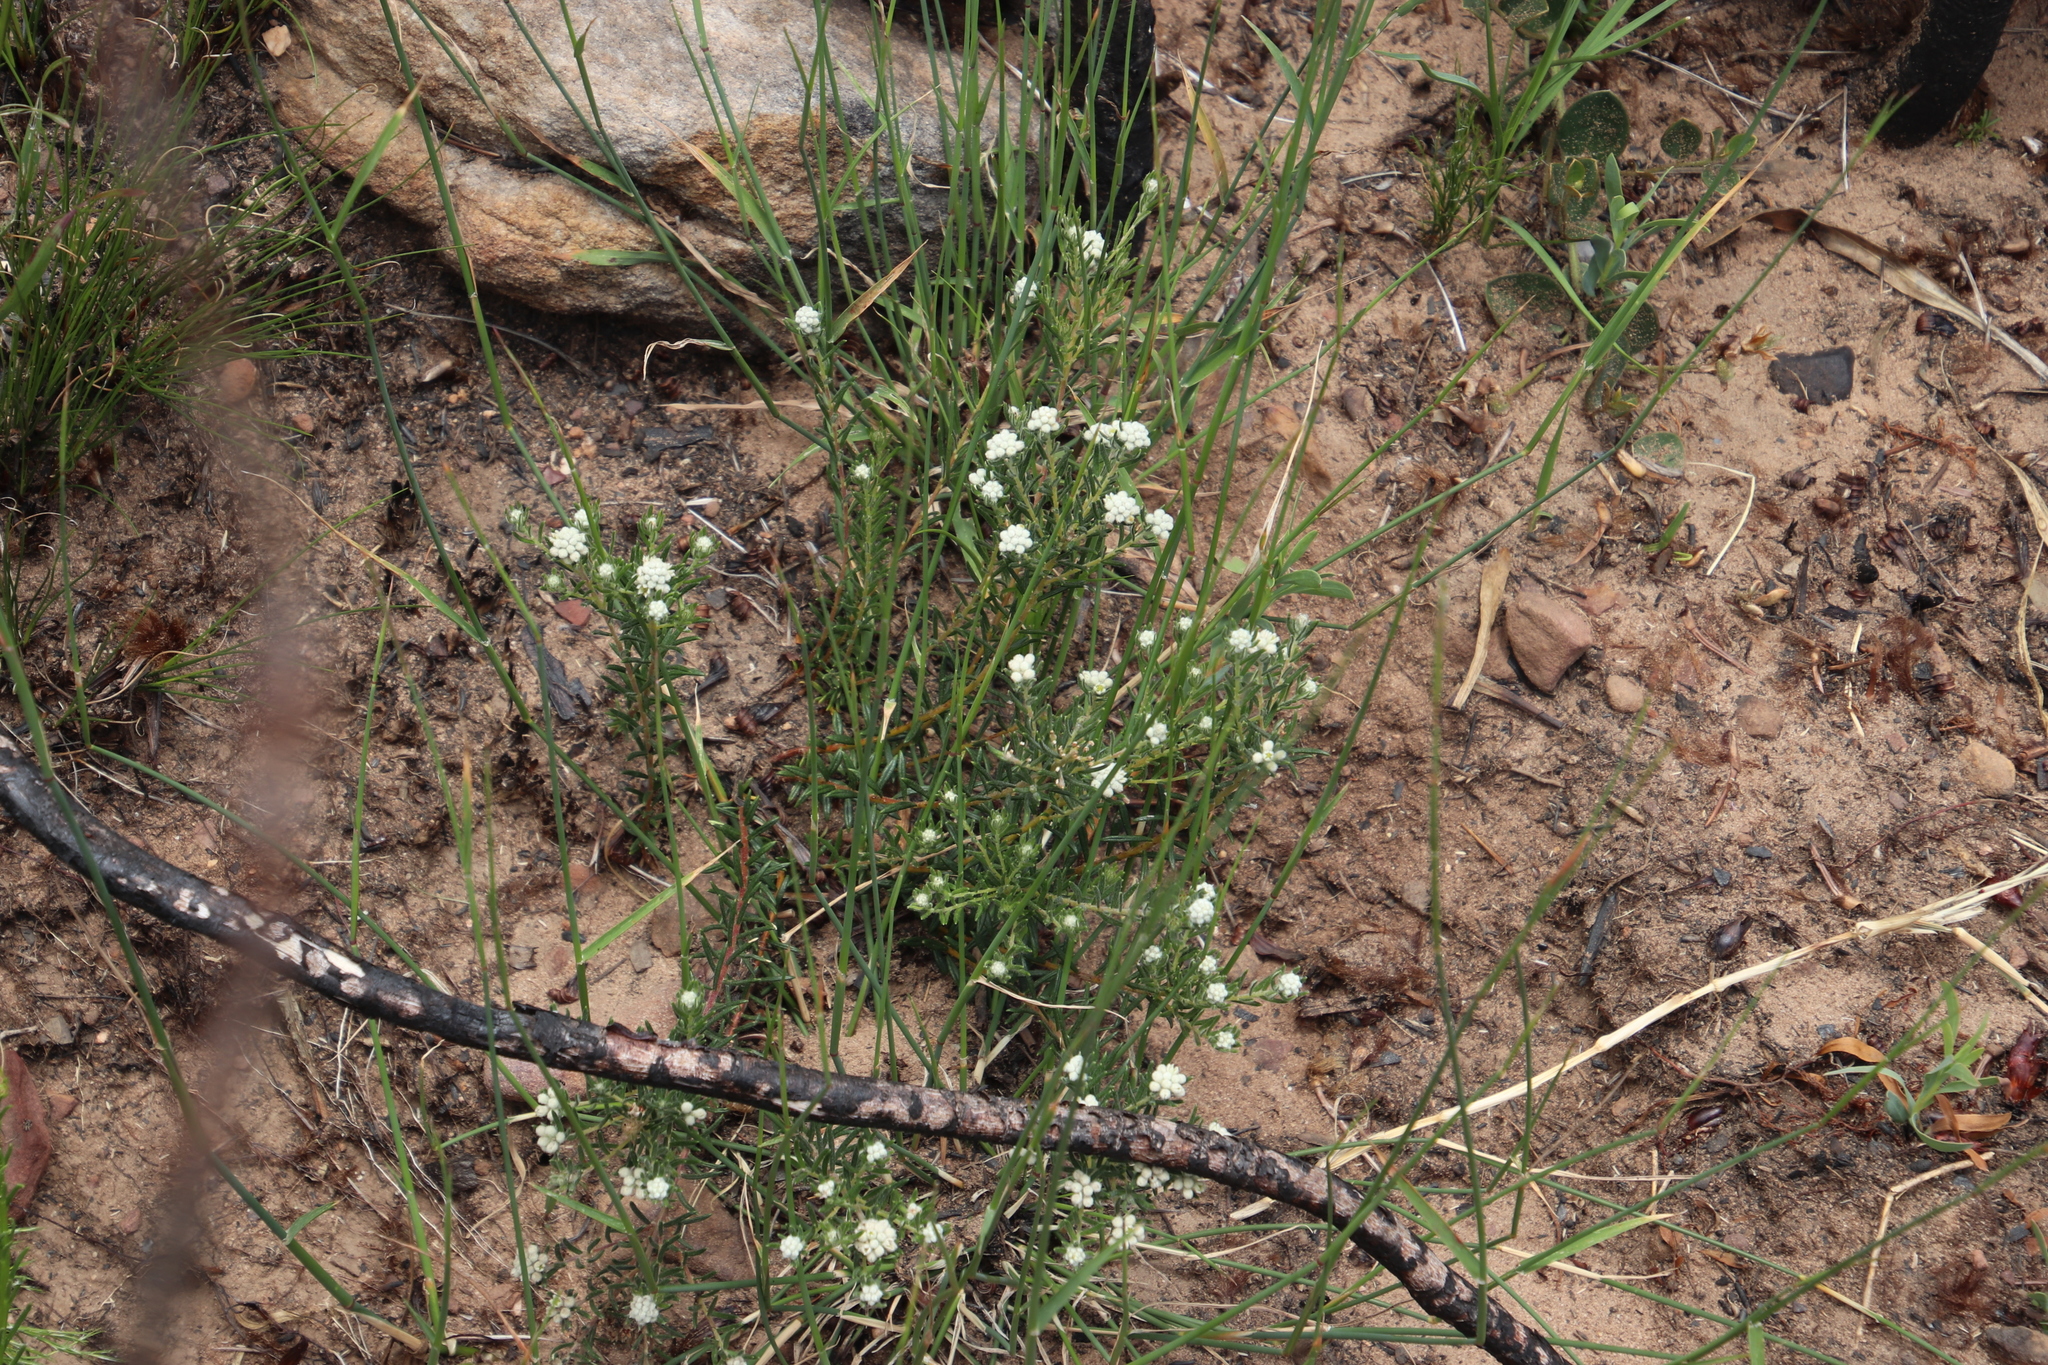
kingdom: Plantae
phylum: Tracheophyta
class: Magnoliopsida
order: Brassicales
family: Brassicaceae
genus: Heliophila
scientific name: Heliophila concatenata
